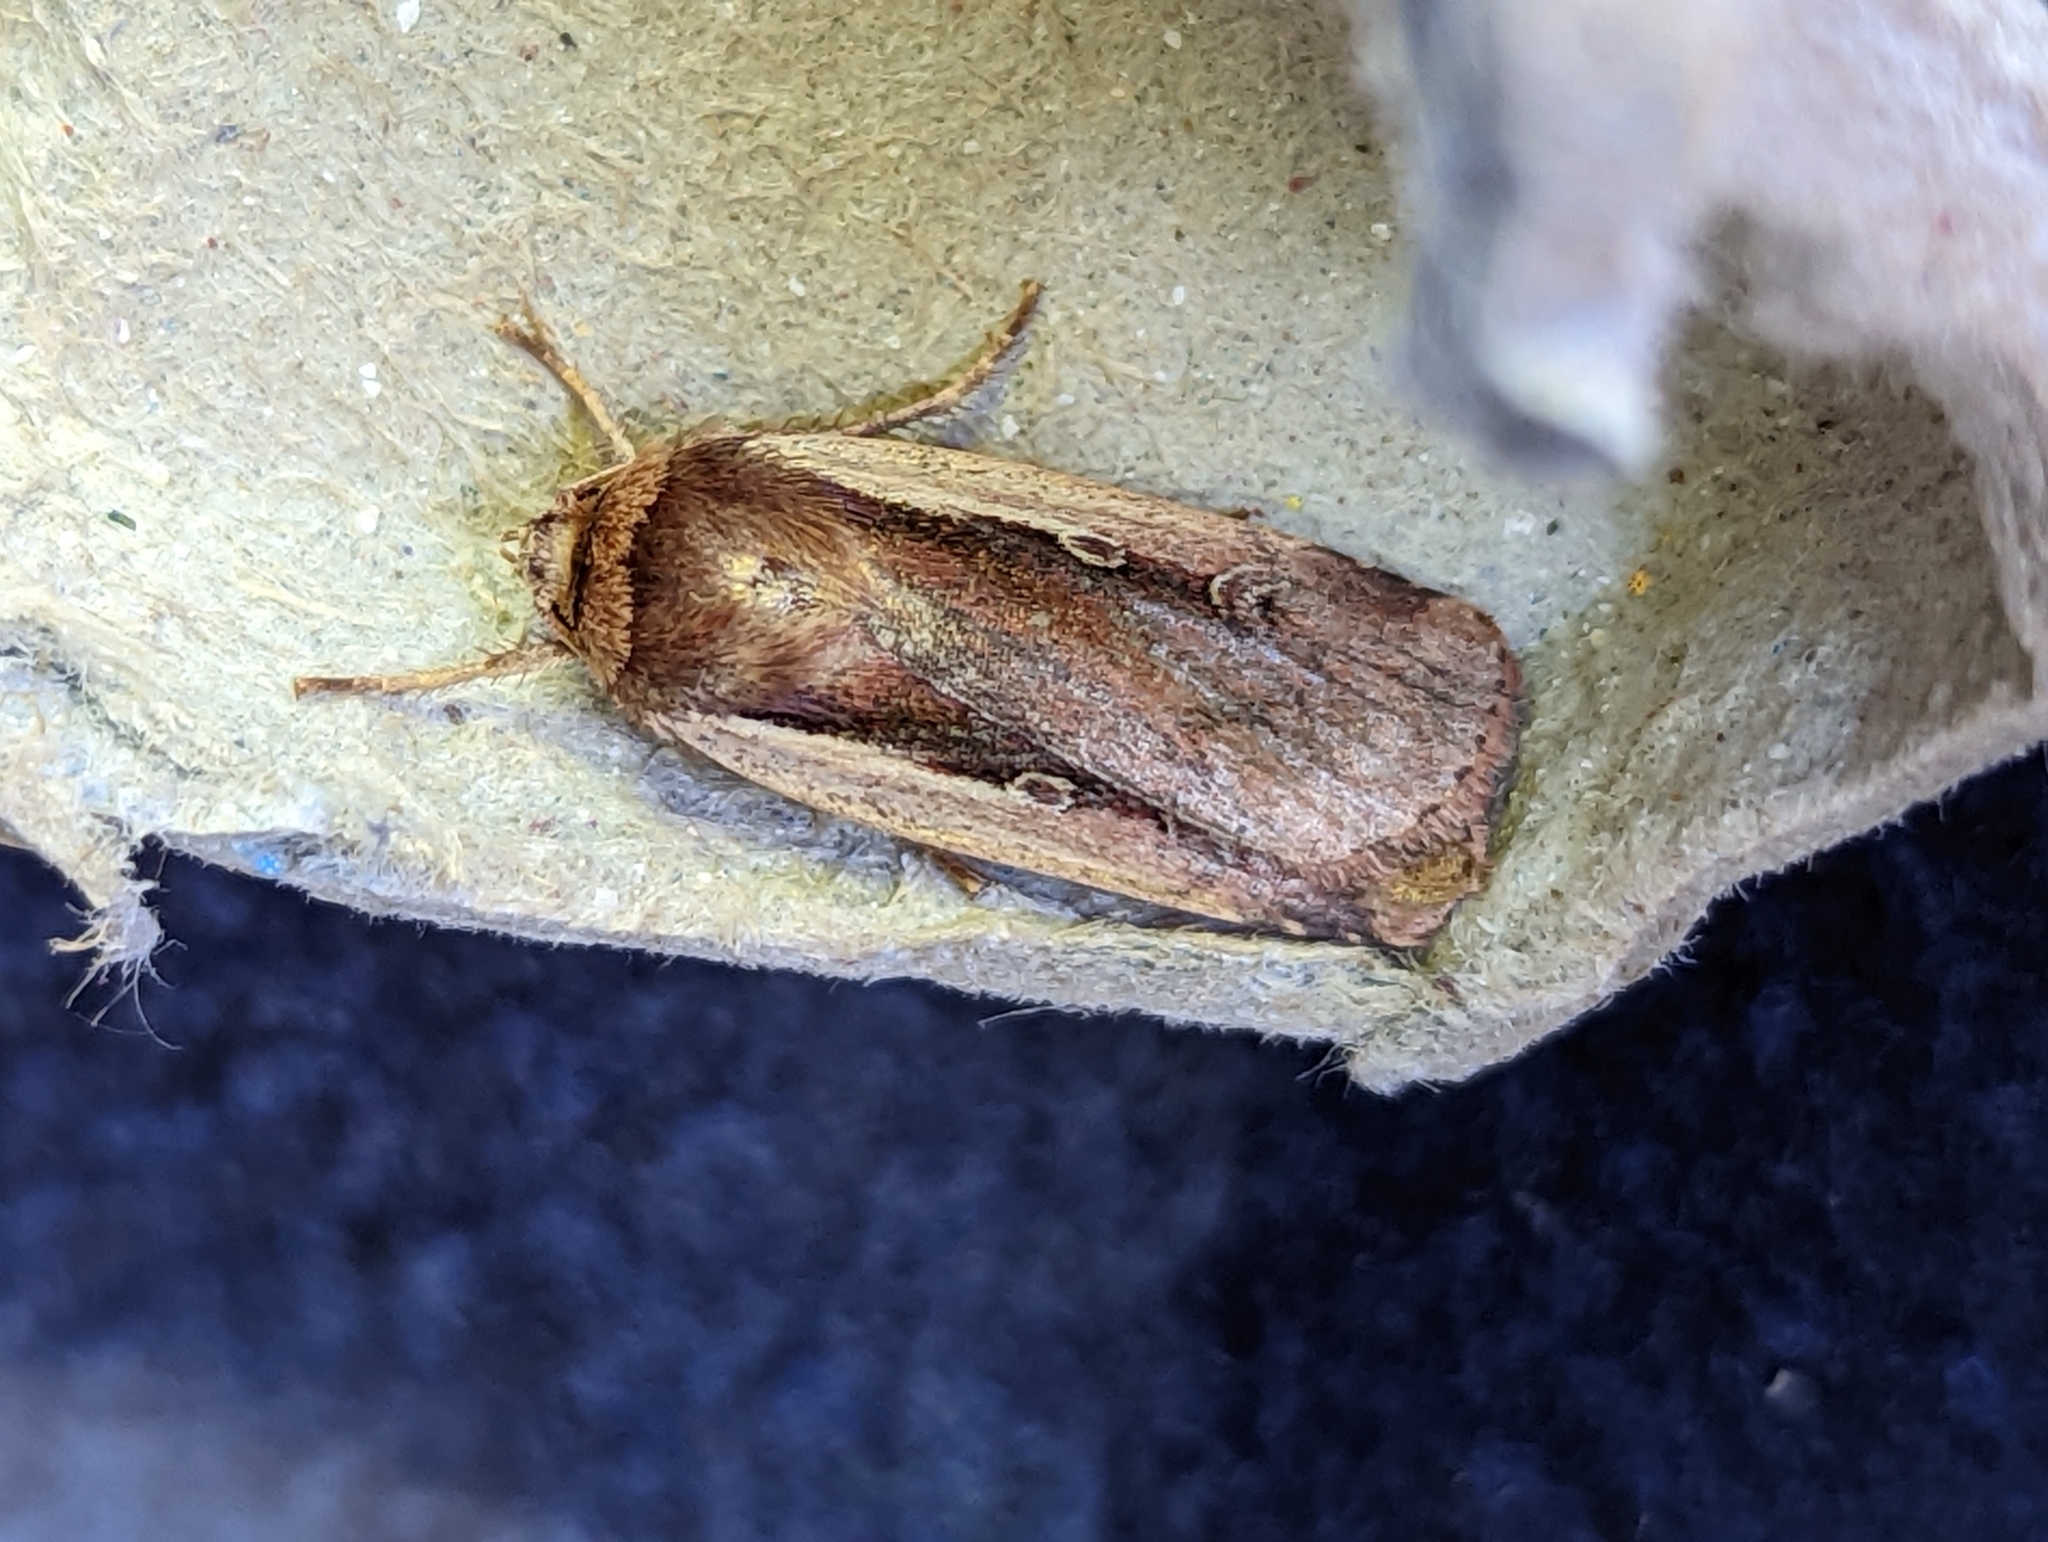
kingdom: Animalia
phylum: Arthropoda
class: Insecta
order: Lepidoptera
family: Noctuidae
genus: Ochropleura
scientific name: Ochropleura plecta
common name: Flame shoulder
